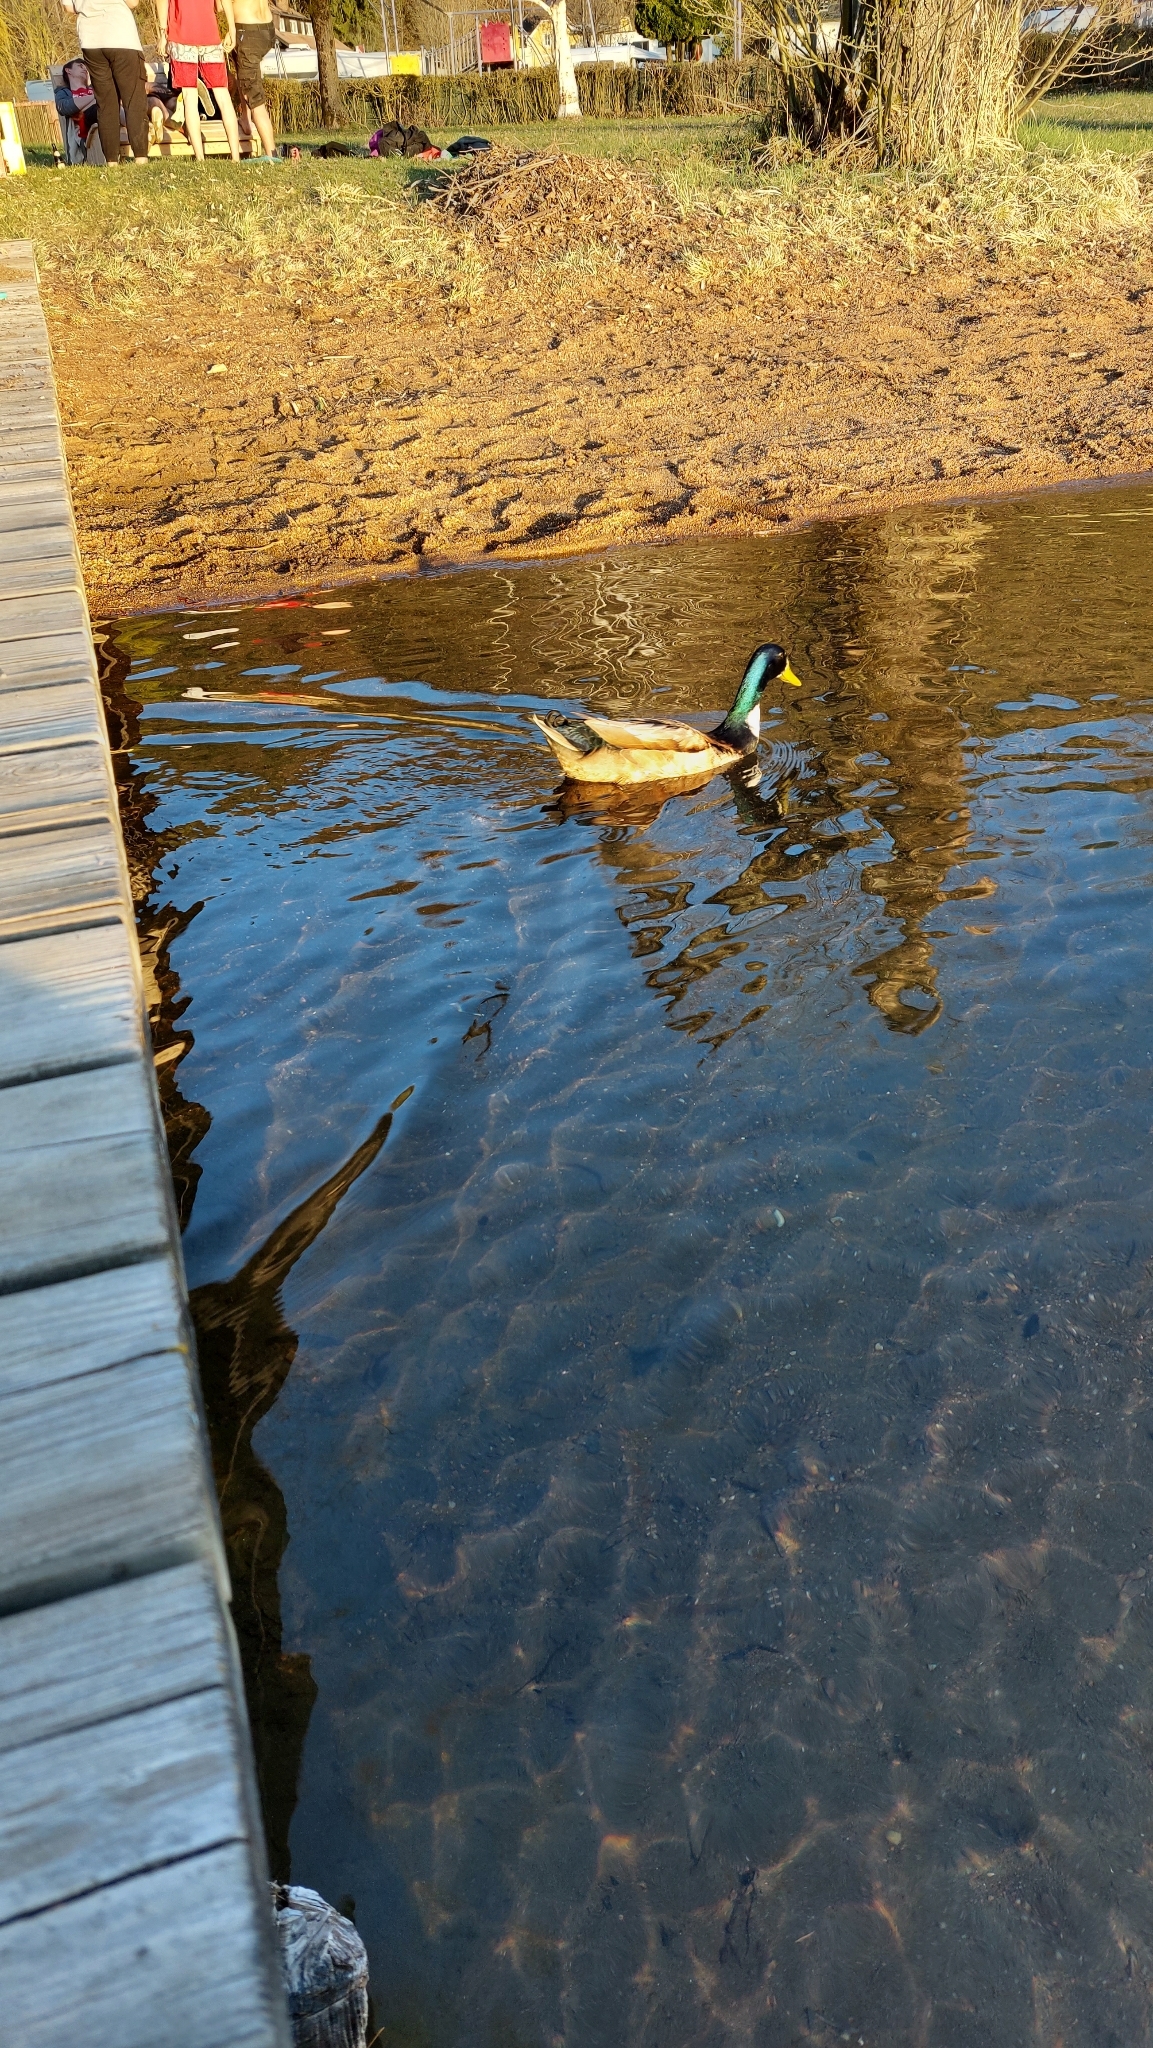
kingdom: Animalia
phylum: Chordata
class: Aves
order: Anseriformes
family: Anatidae
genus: Anas
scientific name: Anas platyrhynchos
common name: Mallard
